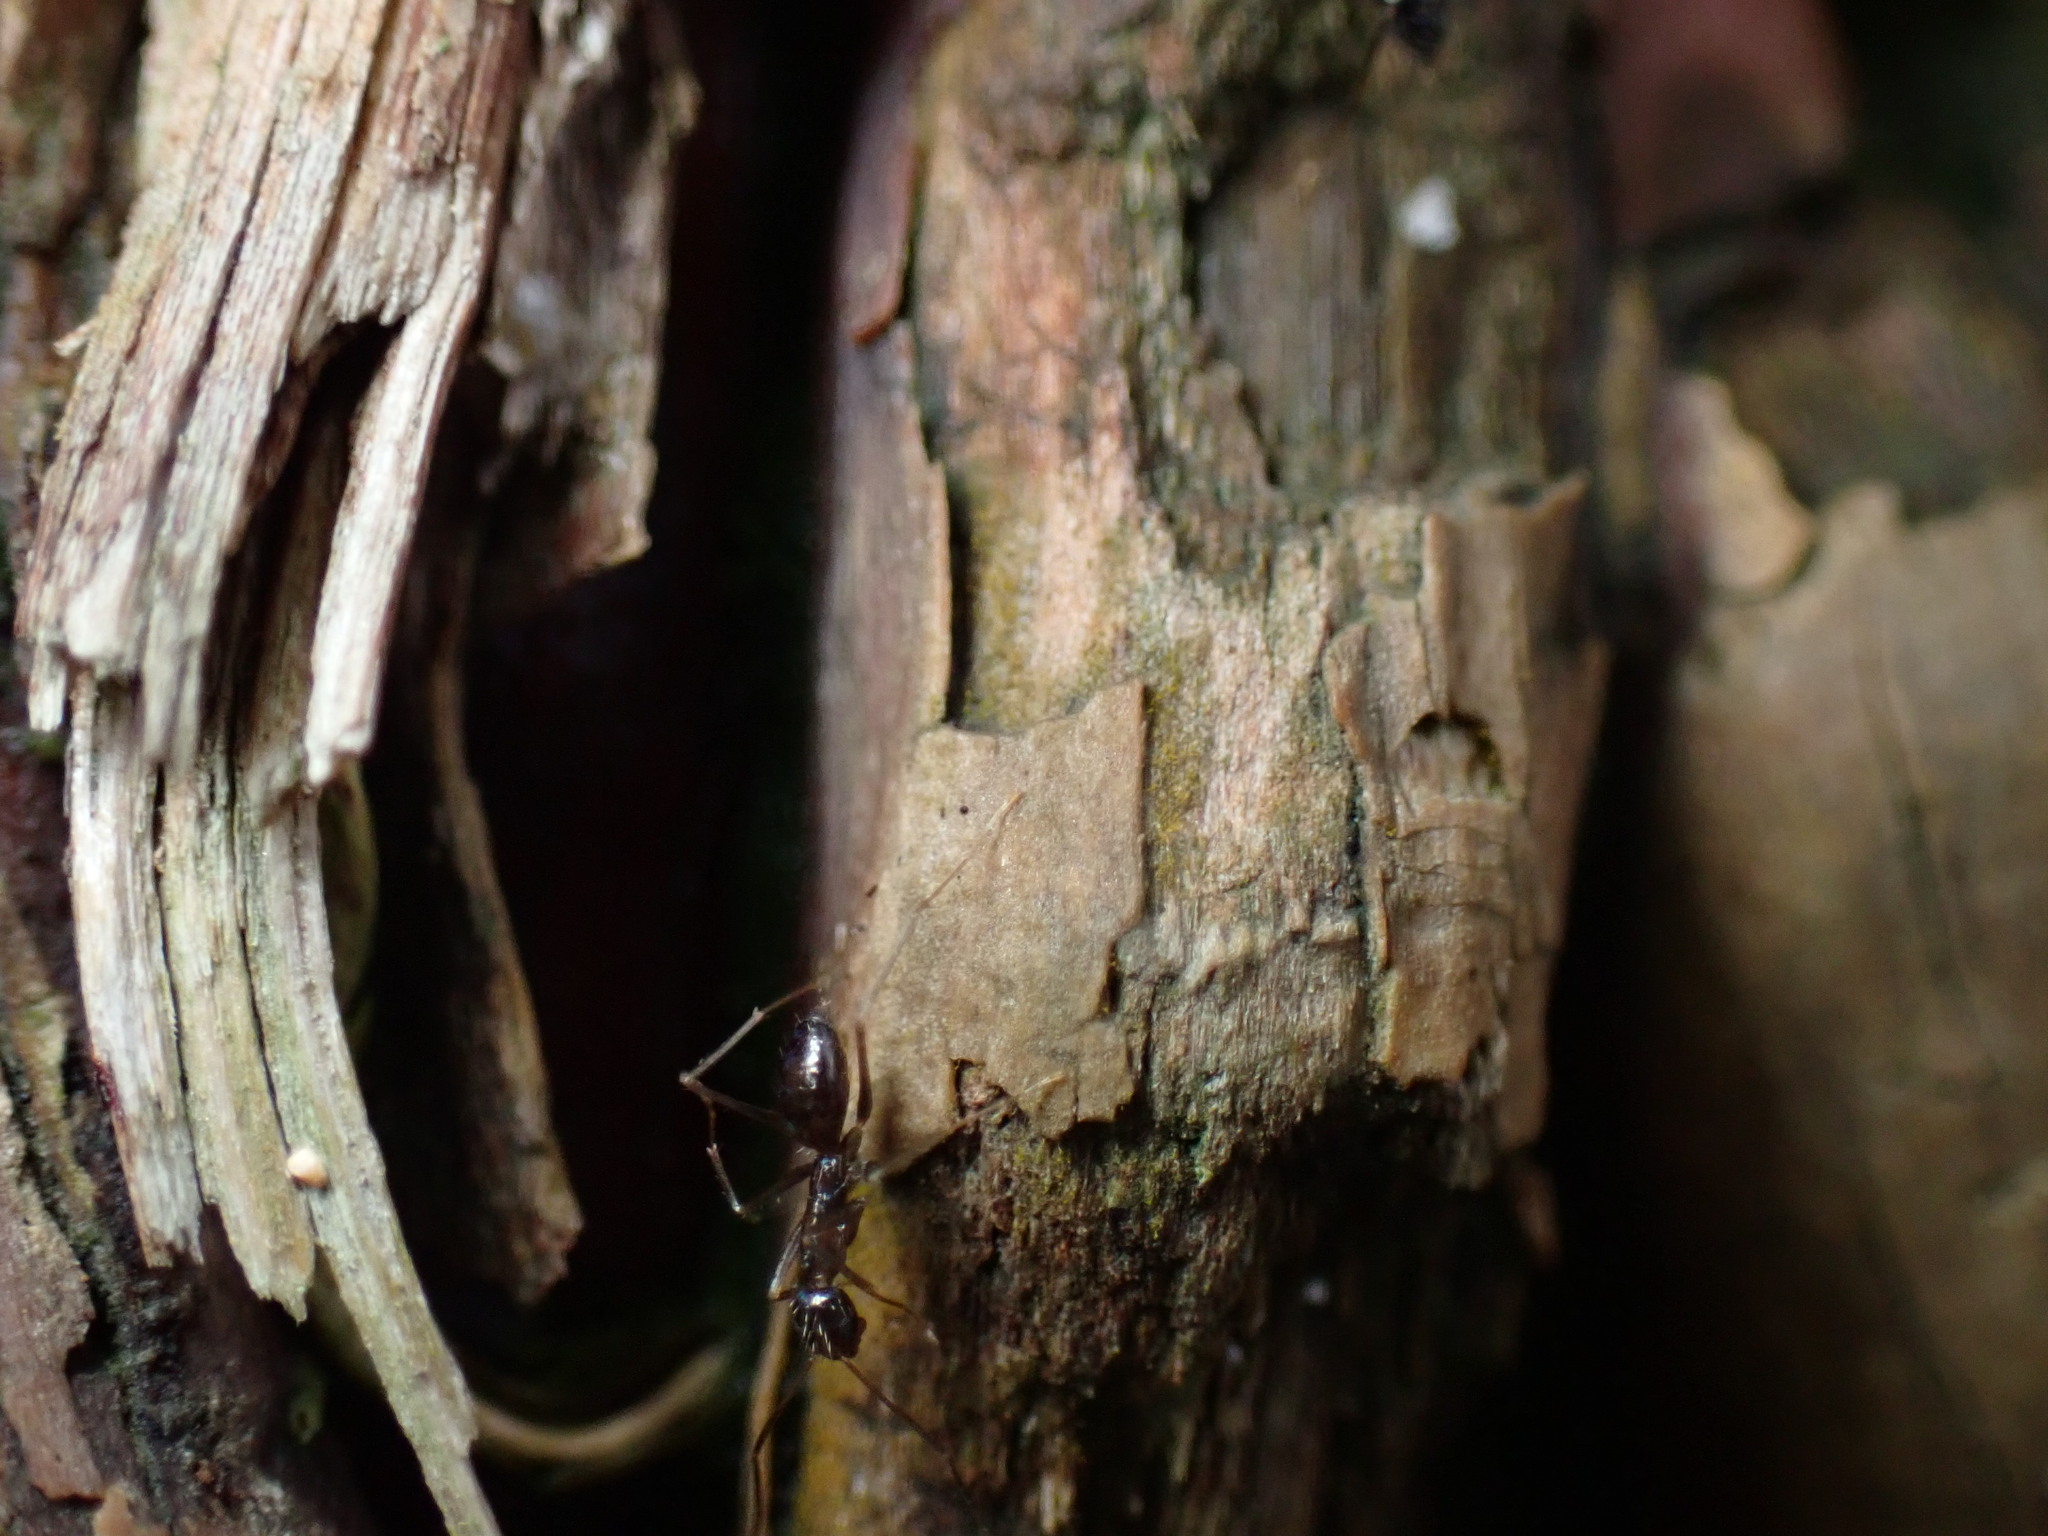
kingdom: Animalia
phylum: Arthropoda
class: Insecta
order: Hymenoptera
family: Formicidae
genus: Paratrechina
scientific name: Paratrechina longicornis
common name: Longhorned crazy ant
